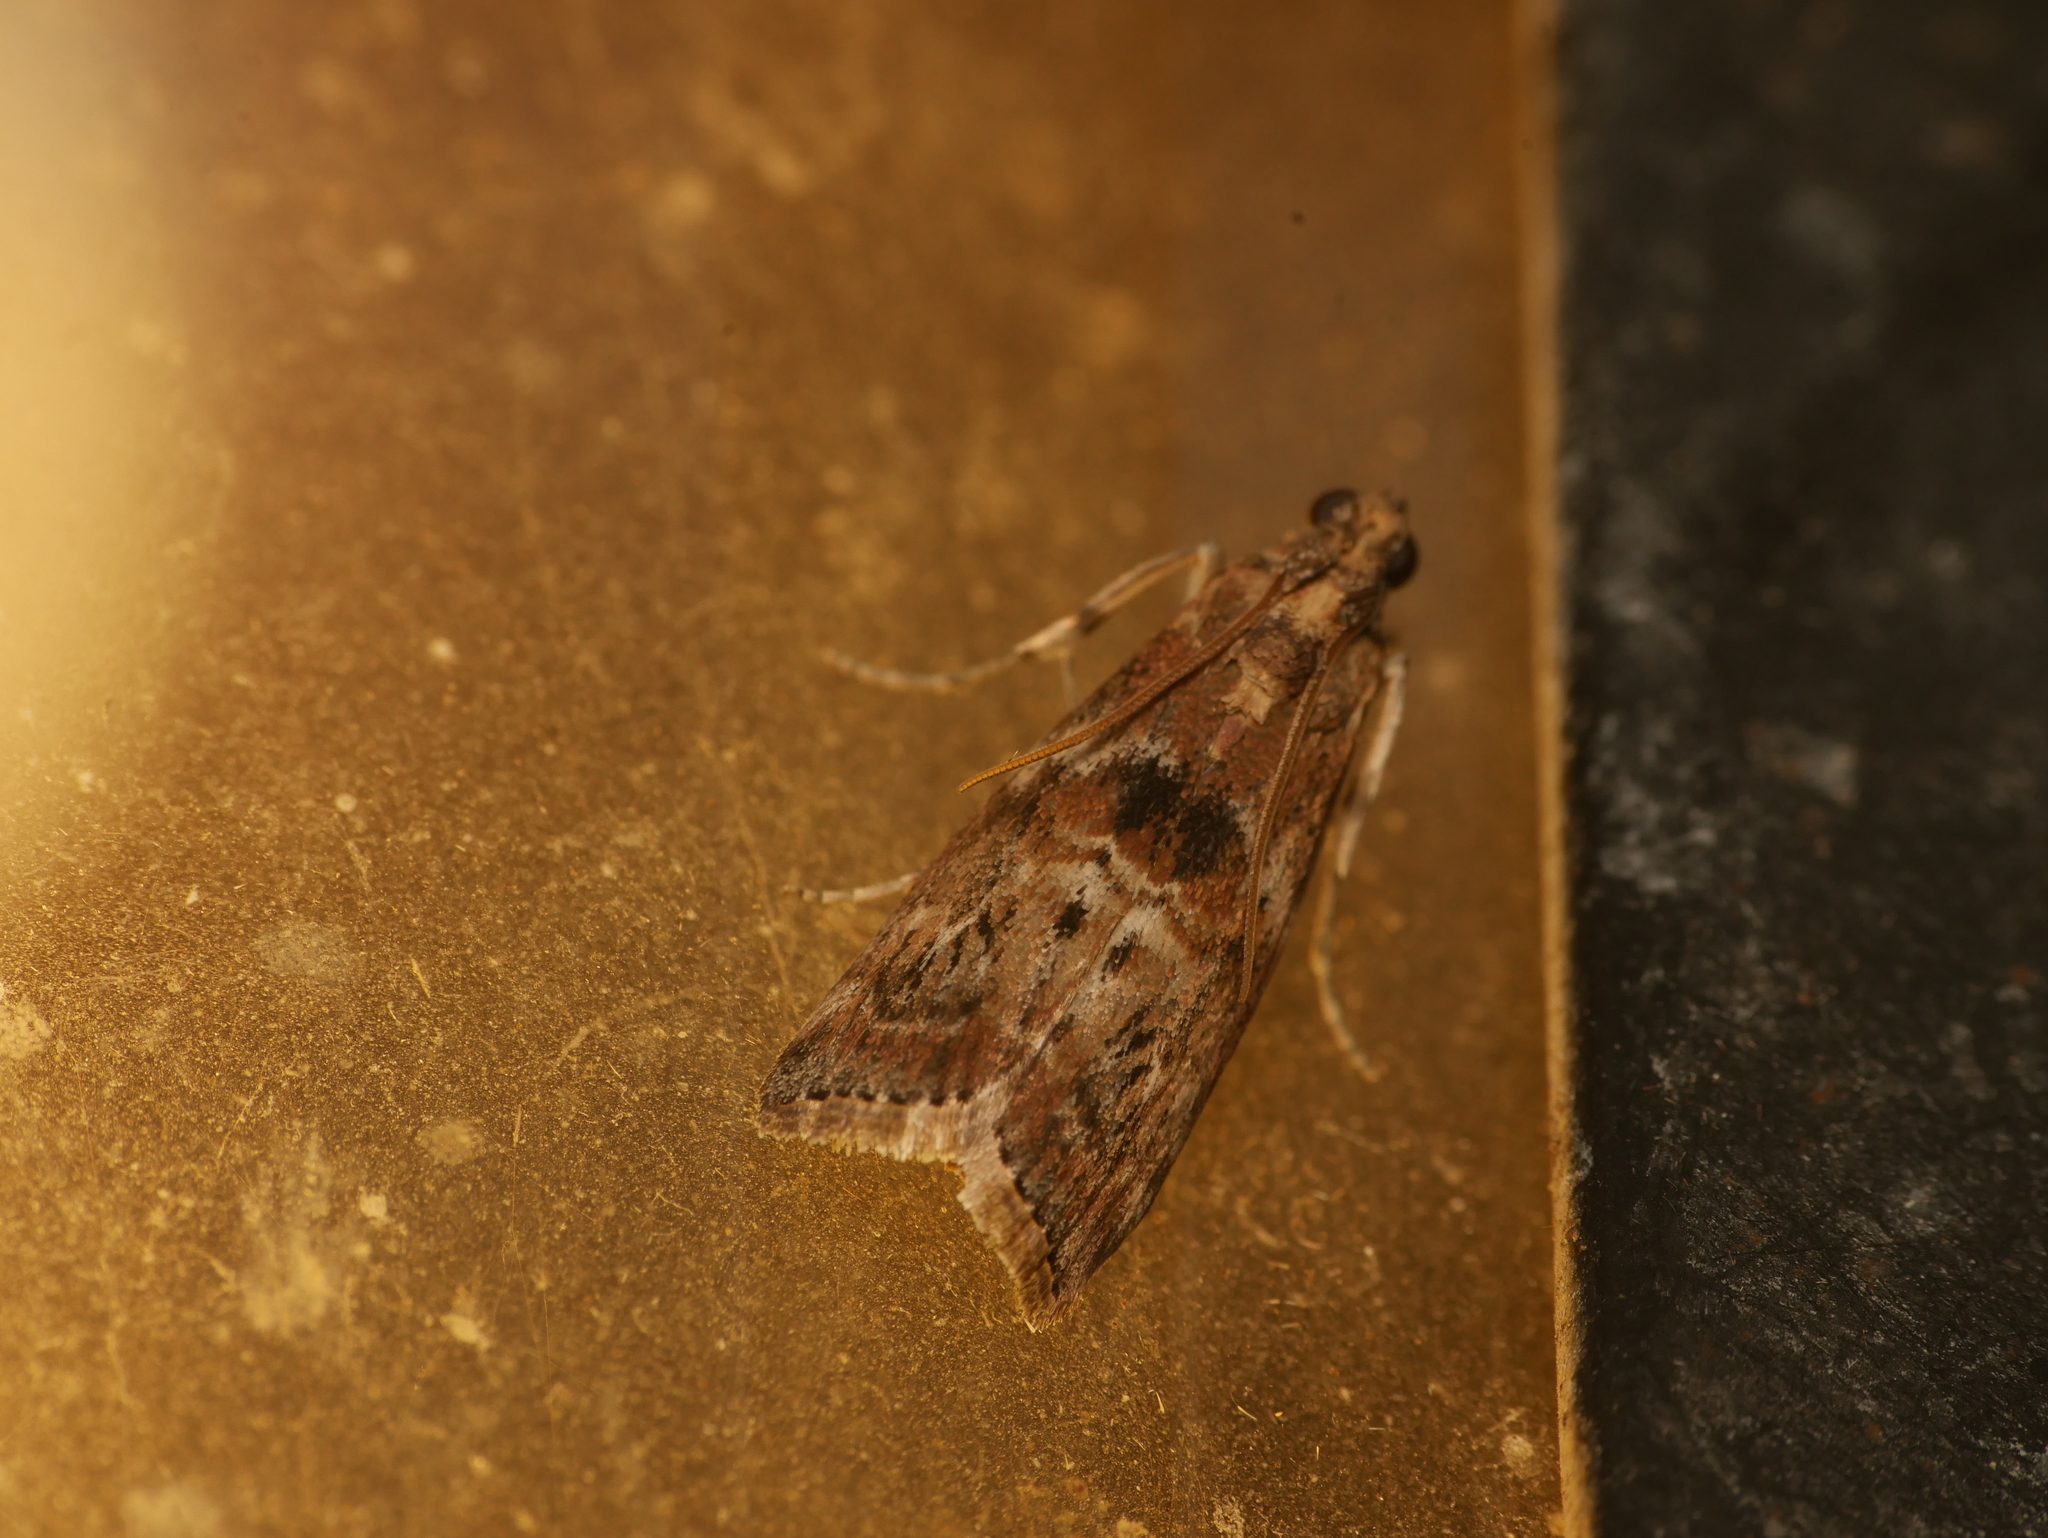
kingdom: Animalia
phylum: Arthropoda
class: Insecta
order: Lepidoptera
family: Pyralidae
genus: Phycita
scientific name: Phycita roborella
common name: Dotted oak knot-horn
